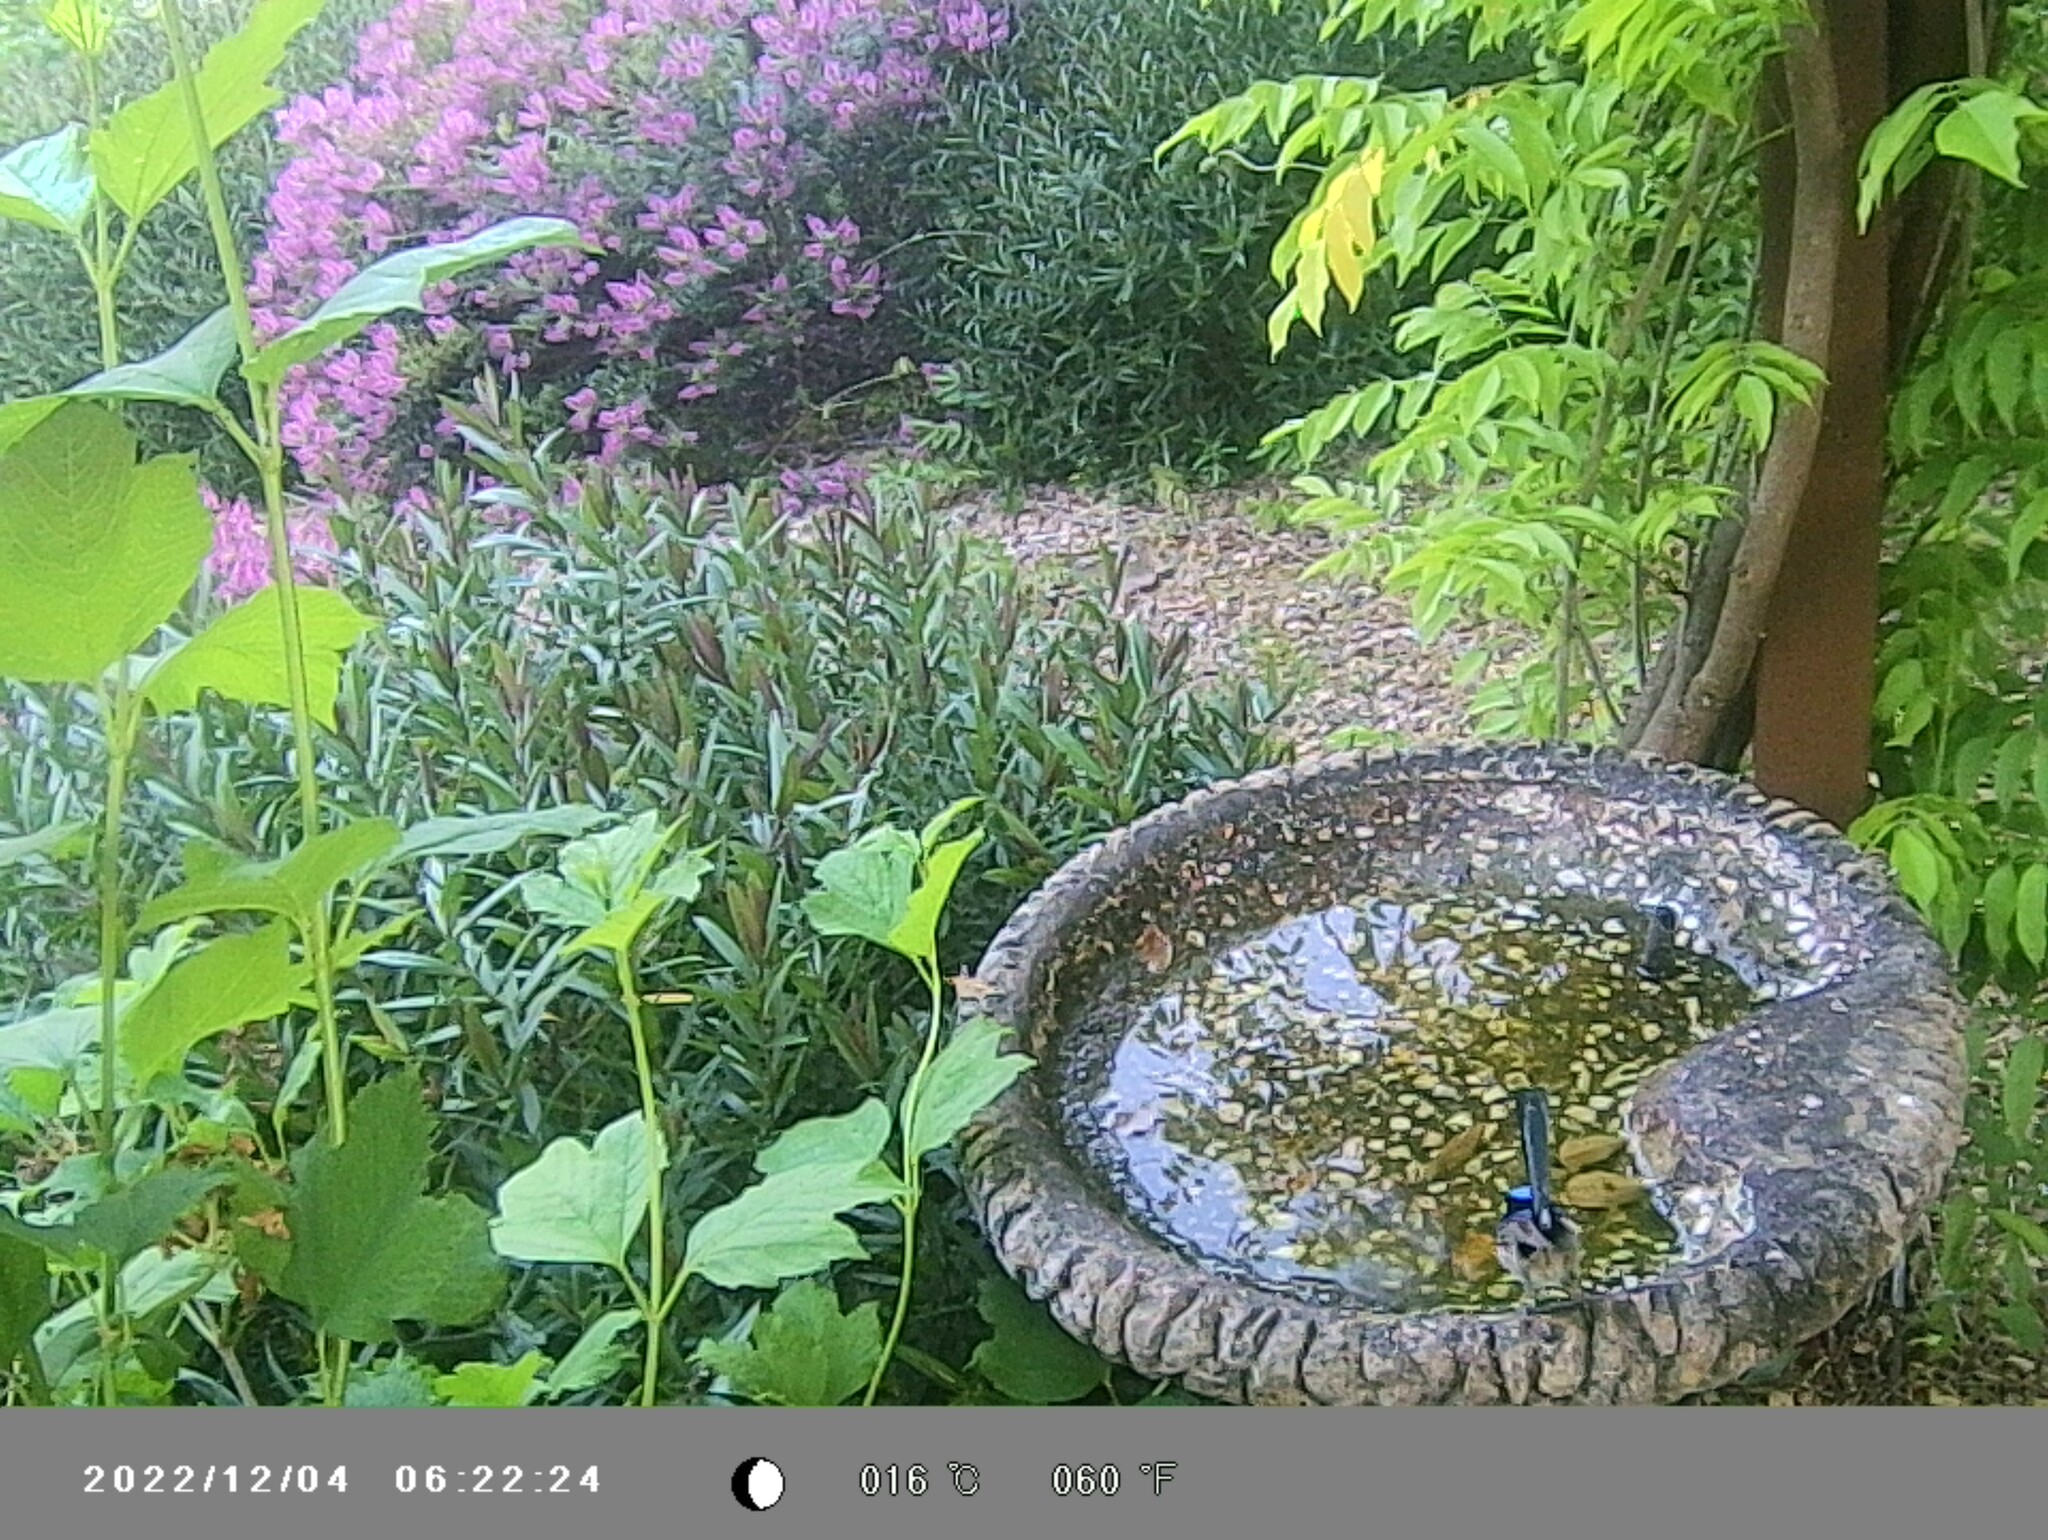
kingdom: Animalia
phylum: Chordata
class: Aves
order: Passeriformes
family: Maluridae
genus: Malurus
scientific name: Malurus cyaneus
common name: Superb fairywren
